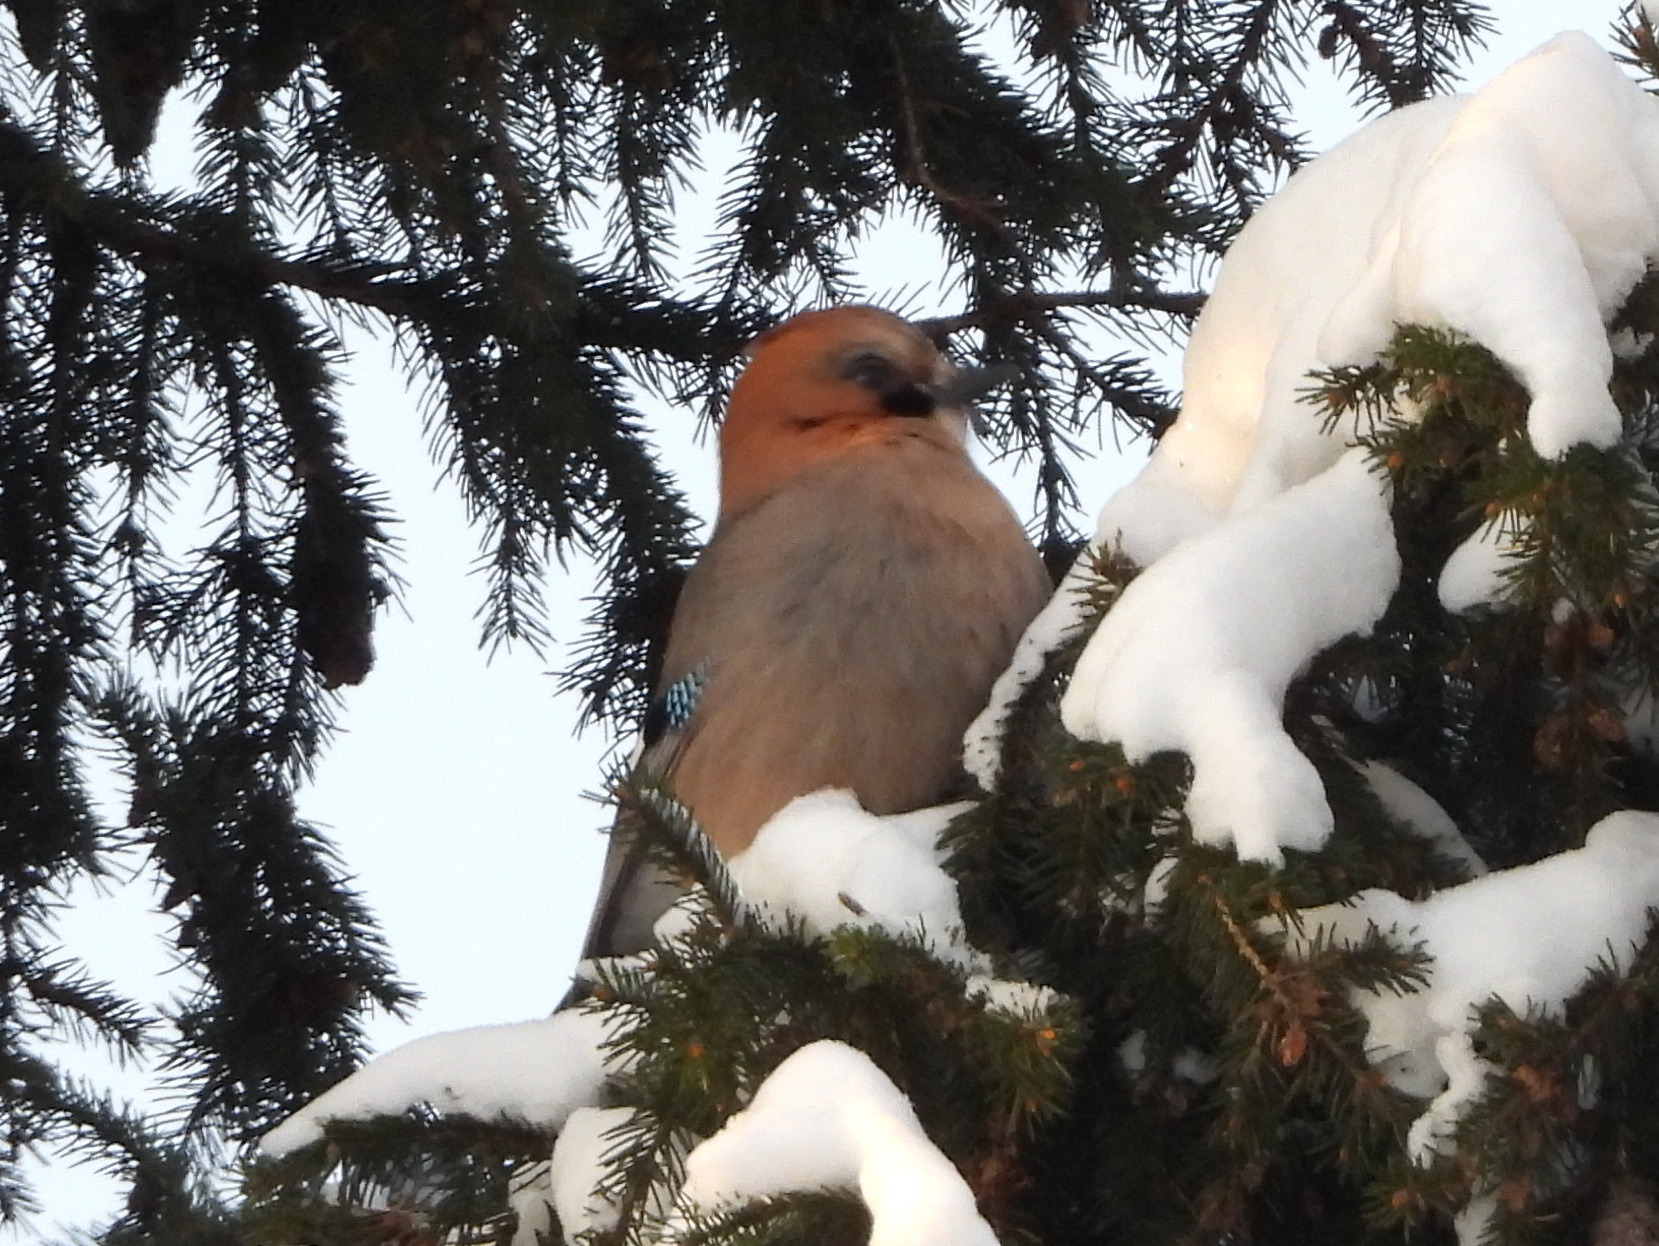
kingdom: Animalia
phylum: Chordata
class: Aves
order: Passeriformes
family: Corvidae
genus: Garrulus
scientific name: Garrulus glandarius
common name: Eurasian jay
